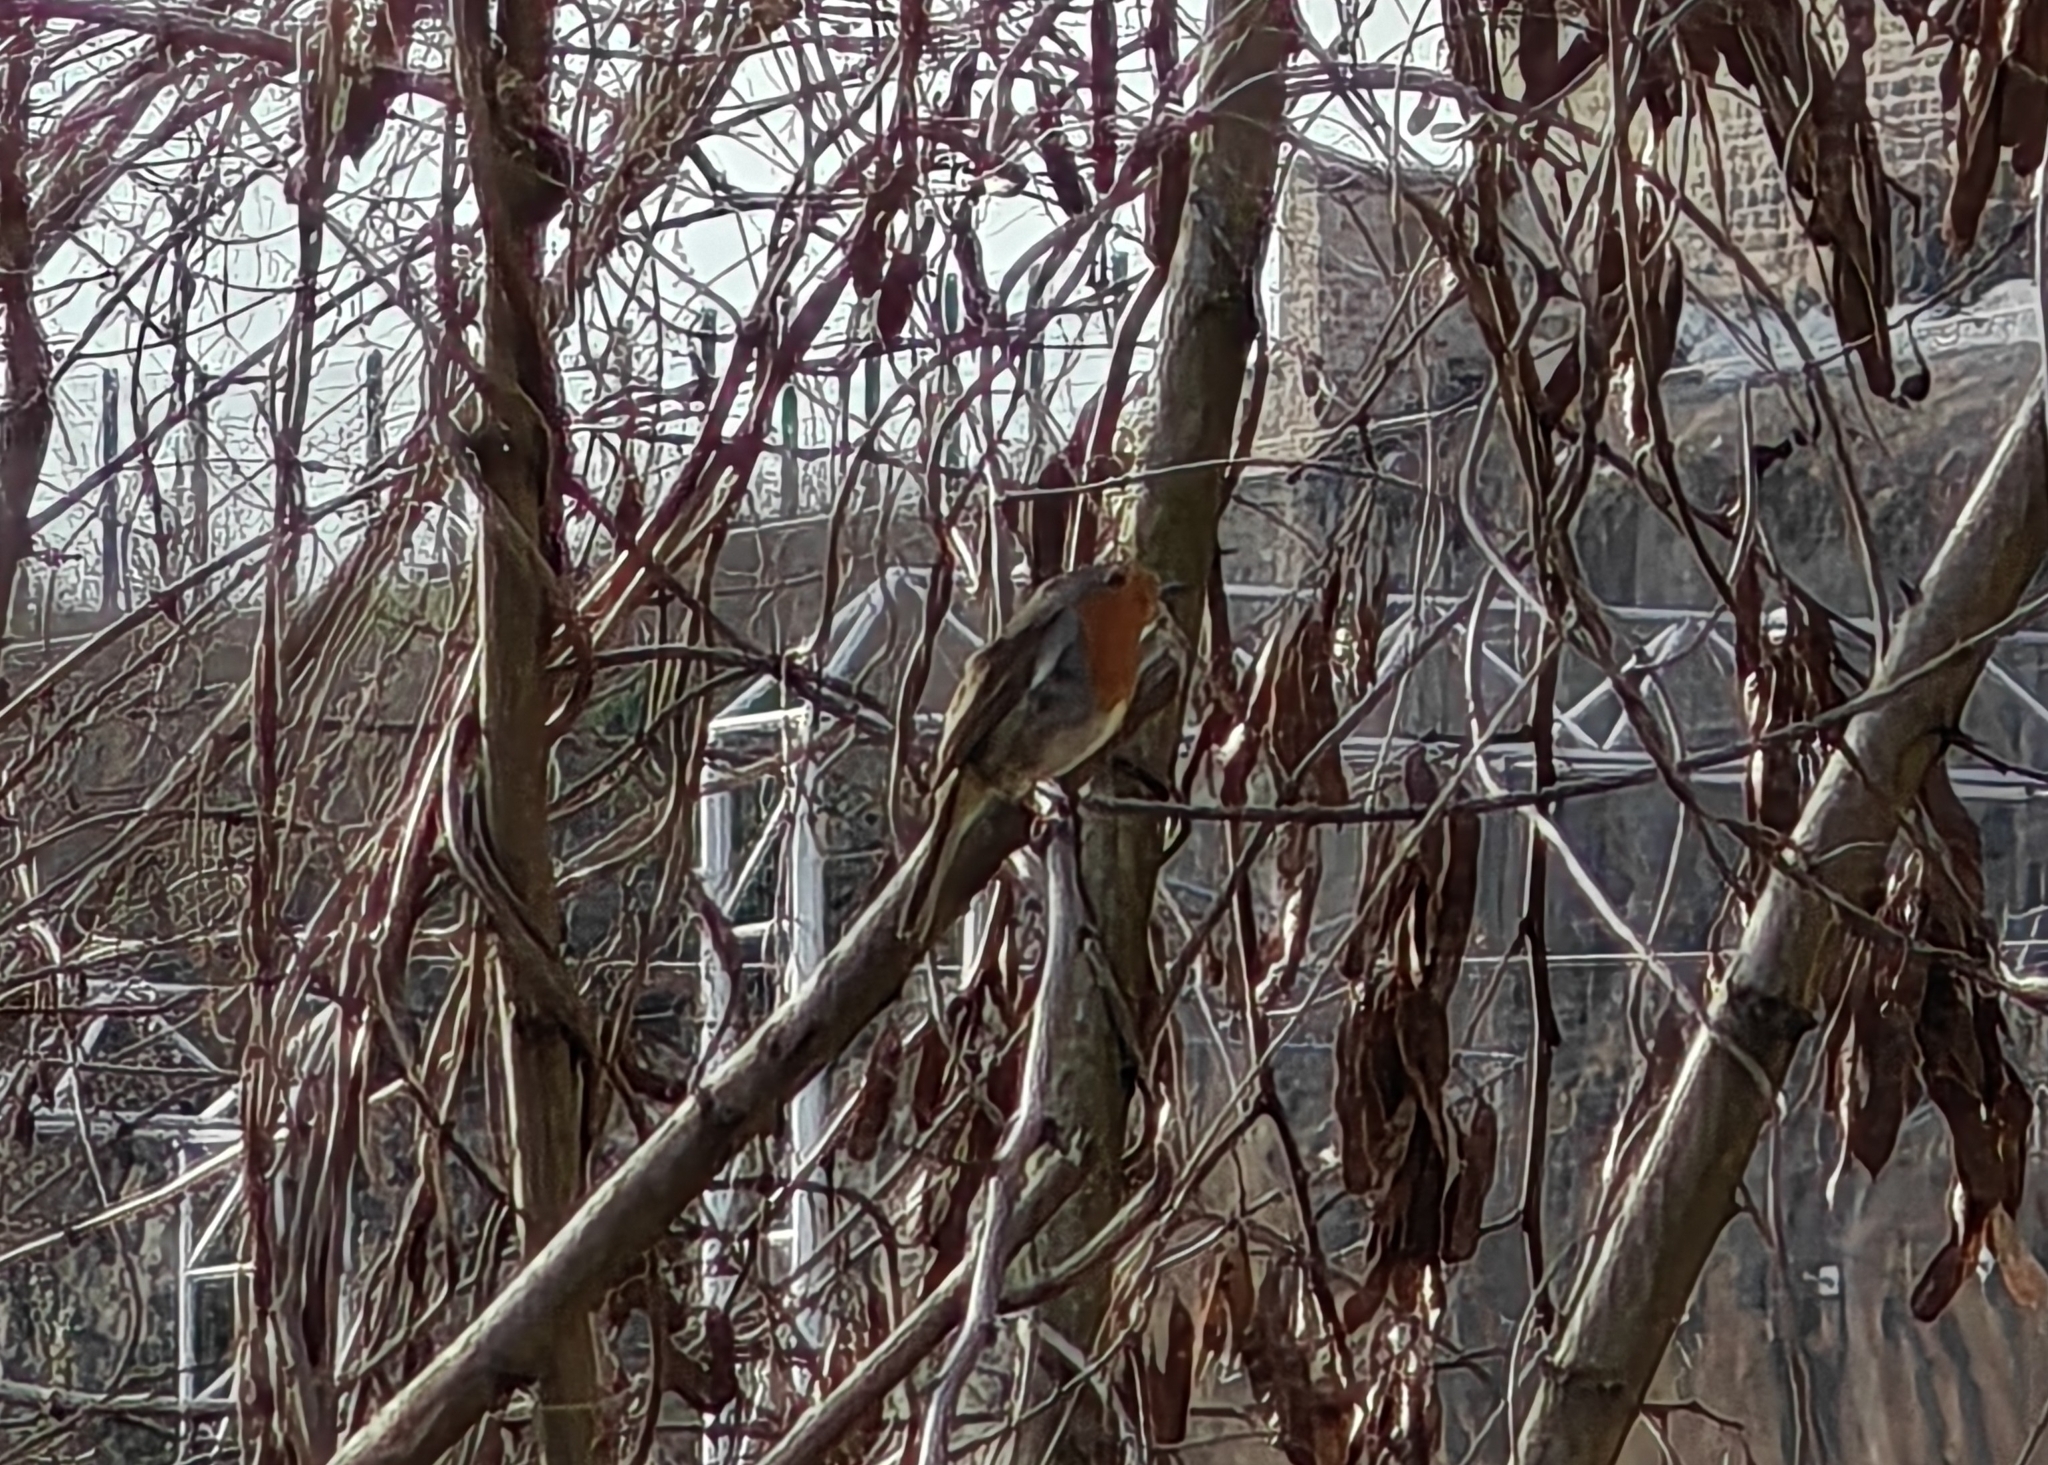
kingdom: Animalia
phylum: Chordata
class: Aves
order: Passeriformes
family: Muscicapidae
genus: Erithacus
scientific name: Erithacus rubecula
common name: European robin
